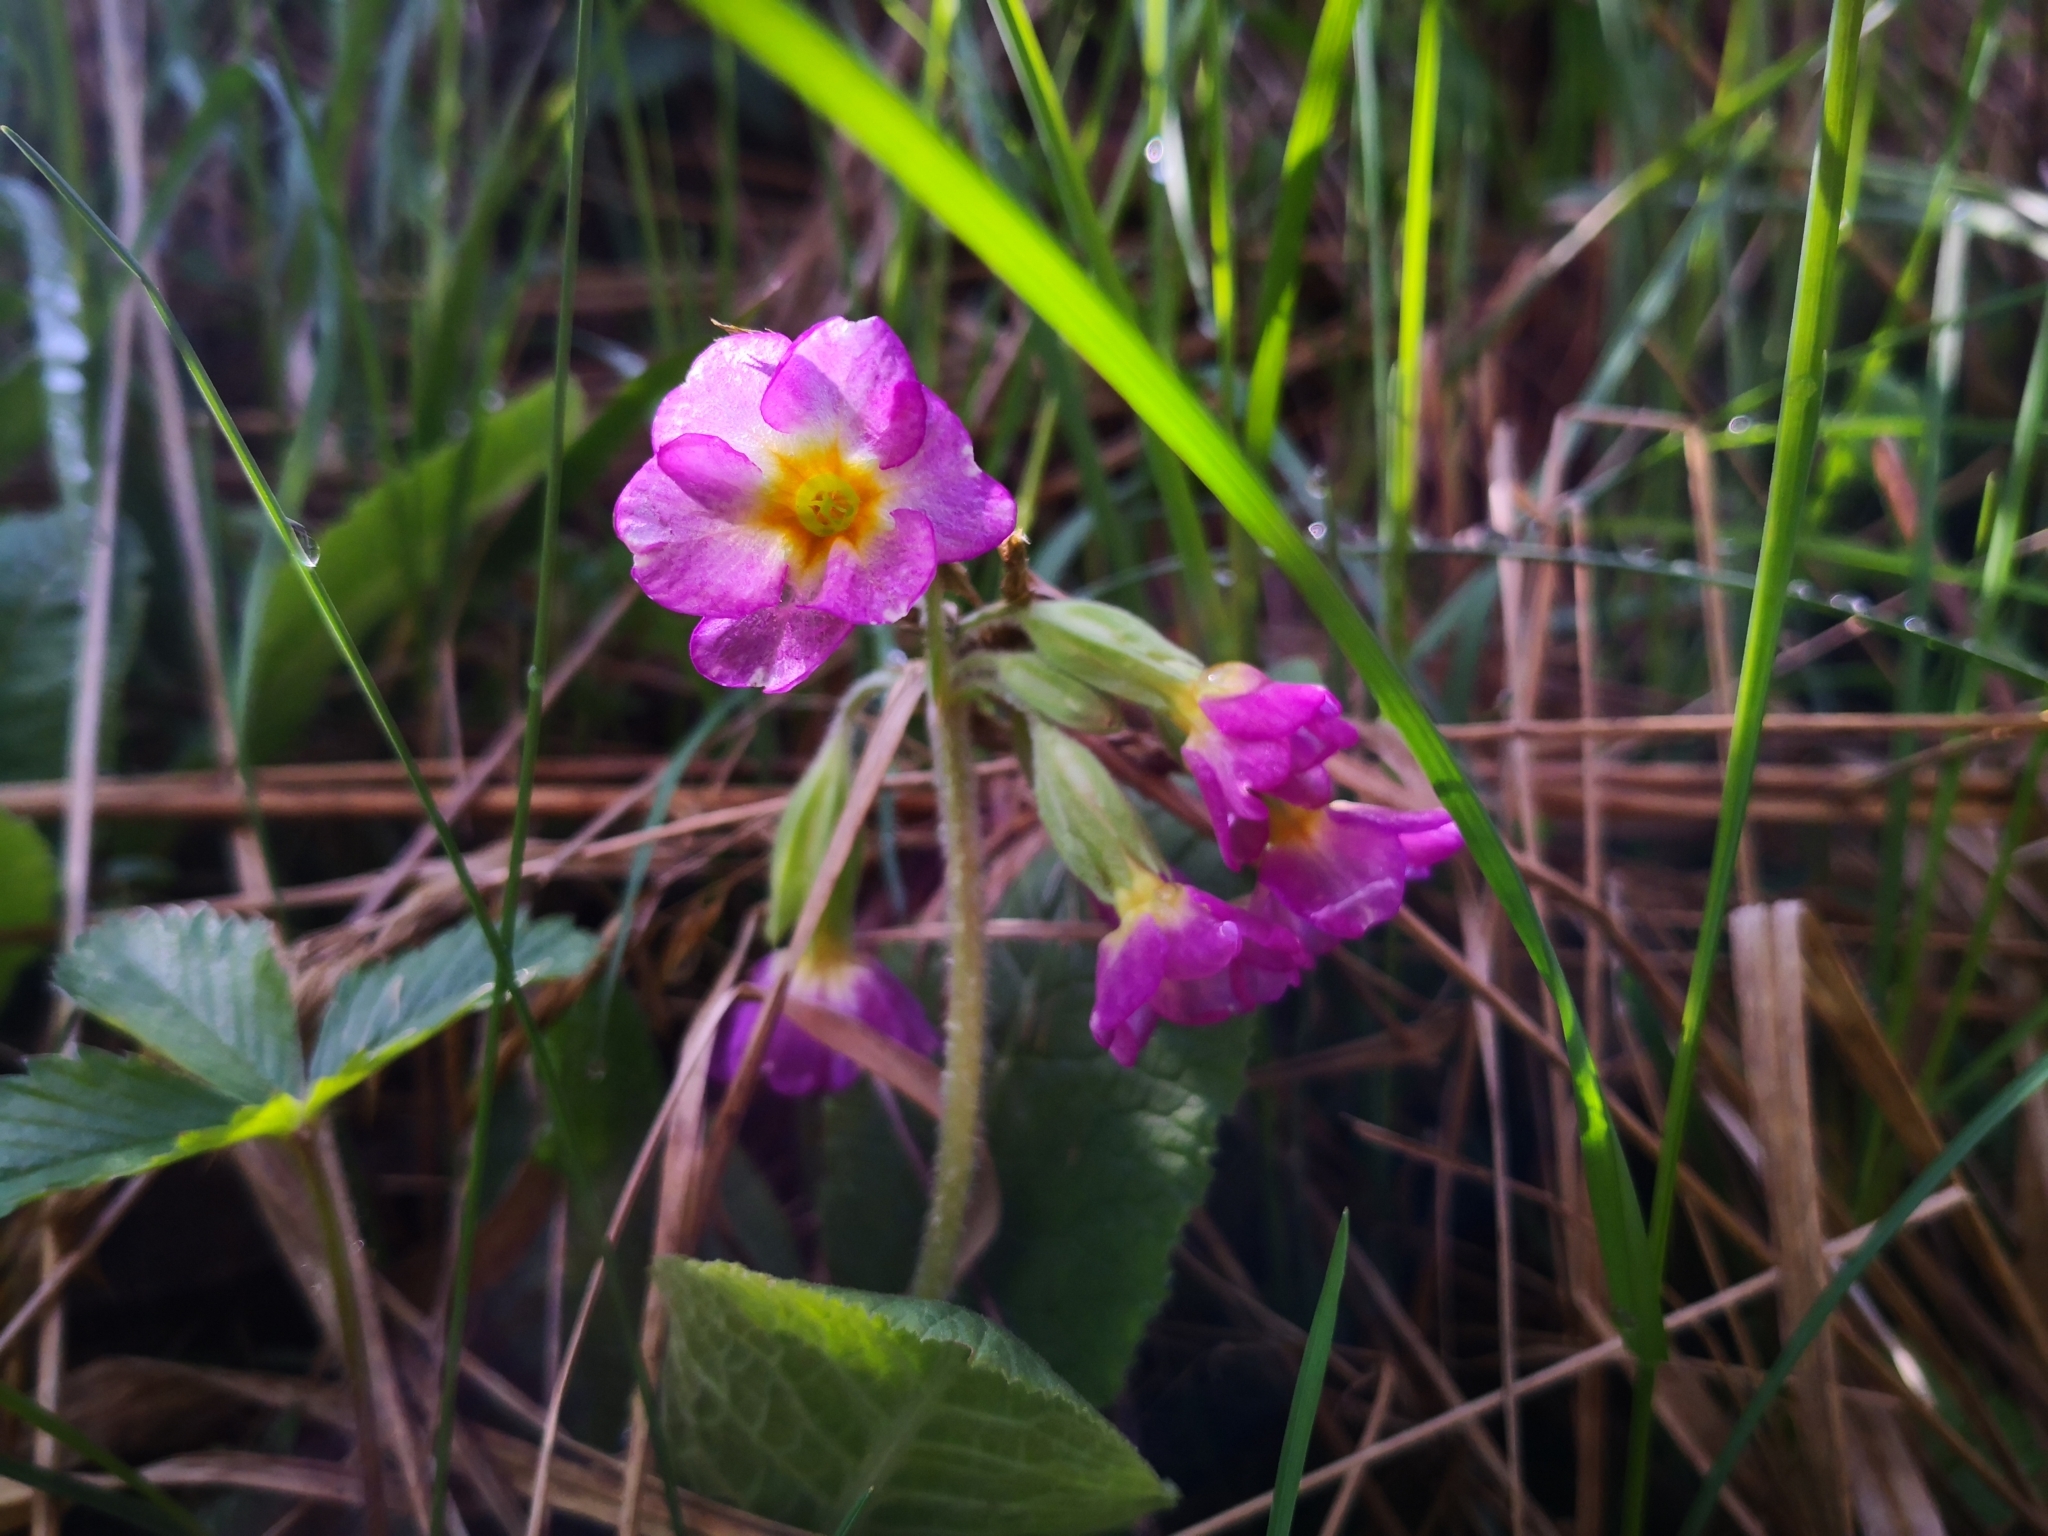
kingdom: Plantae
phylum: Tracheophyta
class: Magnoliopsida
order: Ericales
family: Primulaceae
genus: Primula
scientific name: Primula polyantha
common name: False oxlip
